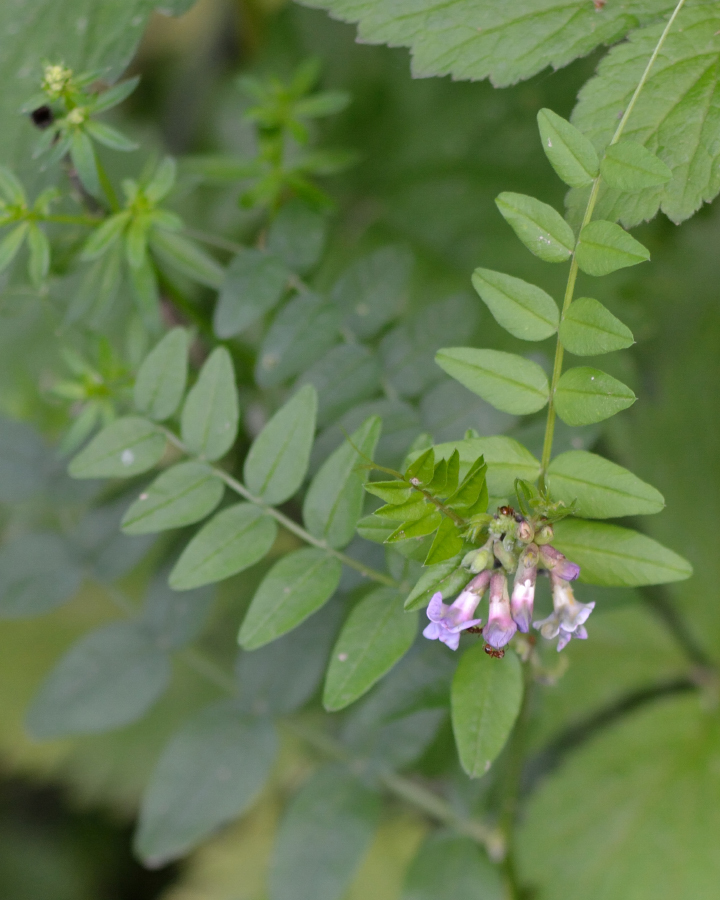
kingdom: Plantae
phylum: Tracheophyta
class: Magnoliopsida
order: Fabales
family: Fabaceae
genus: Vicia
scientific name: Vicia sepium
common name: Bush vetch
